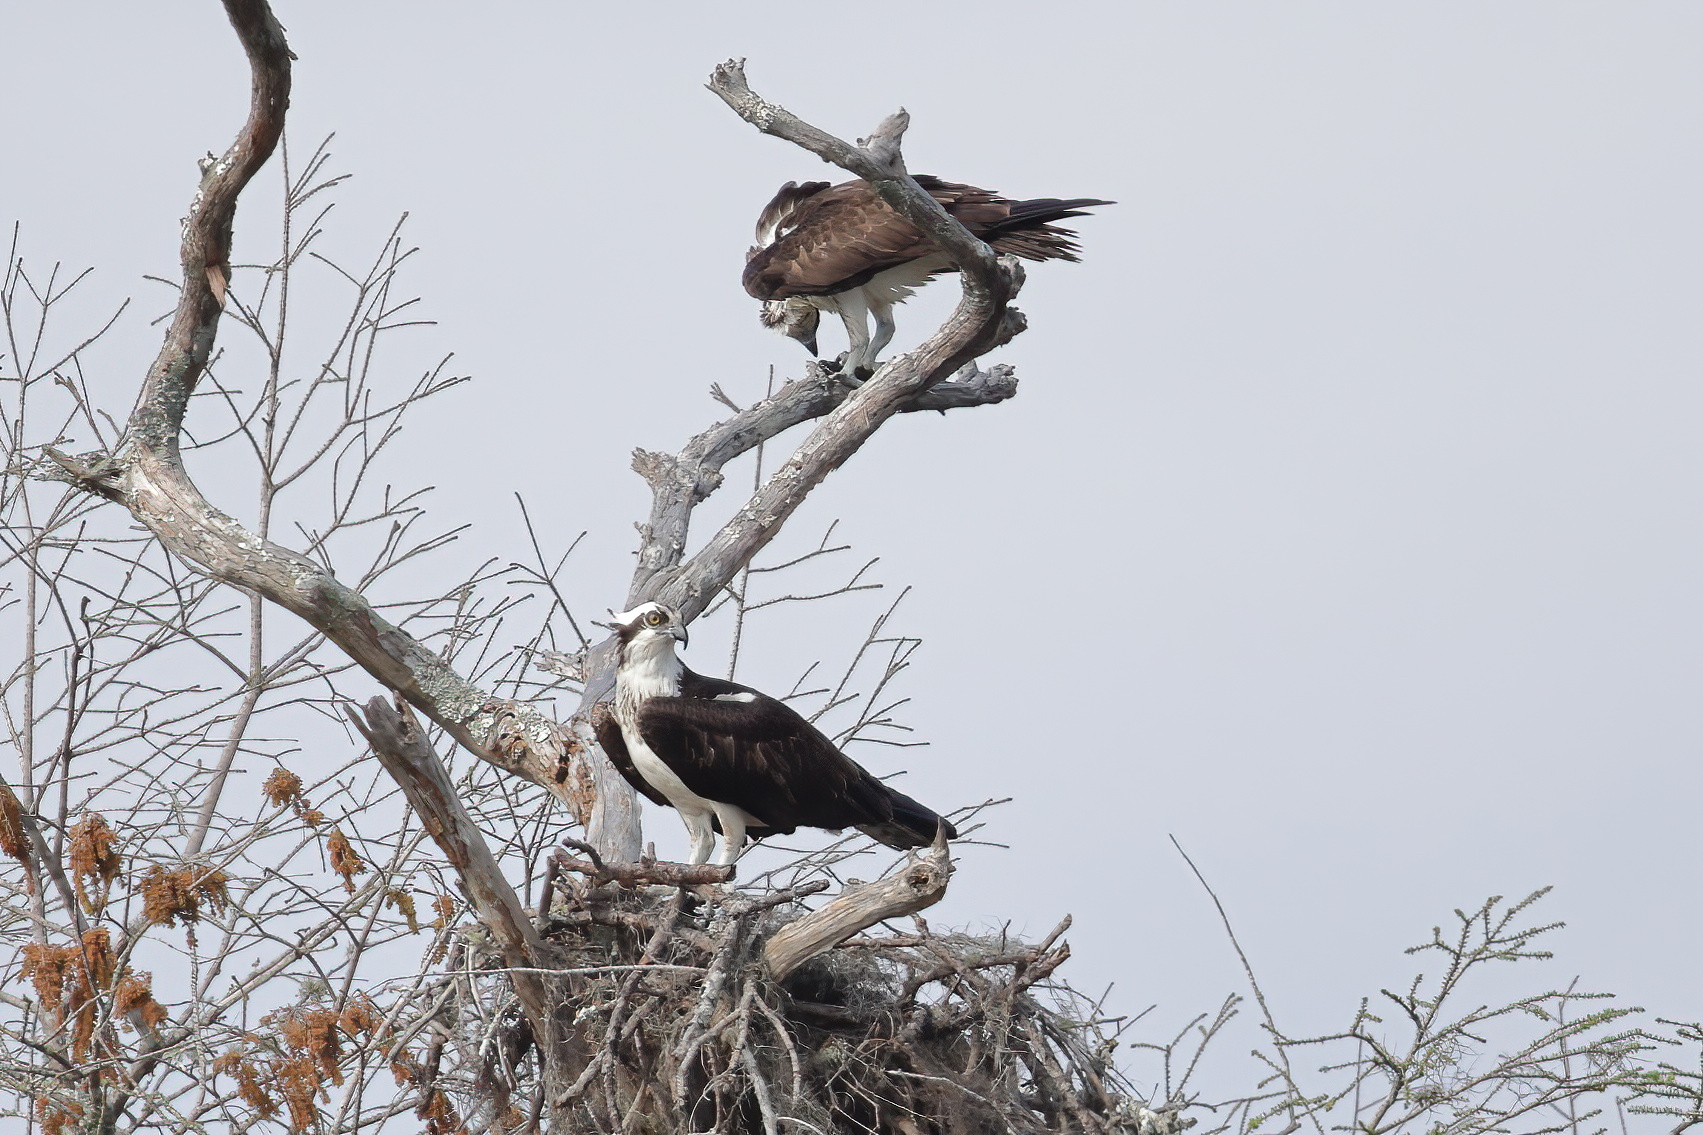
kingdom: Animalia
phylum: Chordata
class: Aves
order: Accipitriformes
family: Pandionidae
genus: Pandion
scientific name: Pandion haliaetus
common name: Osprey
